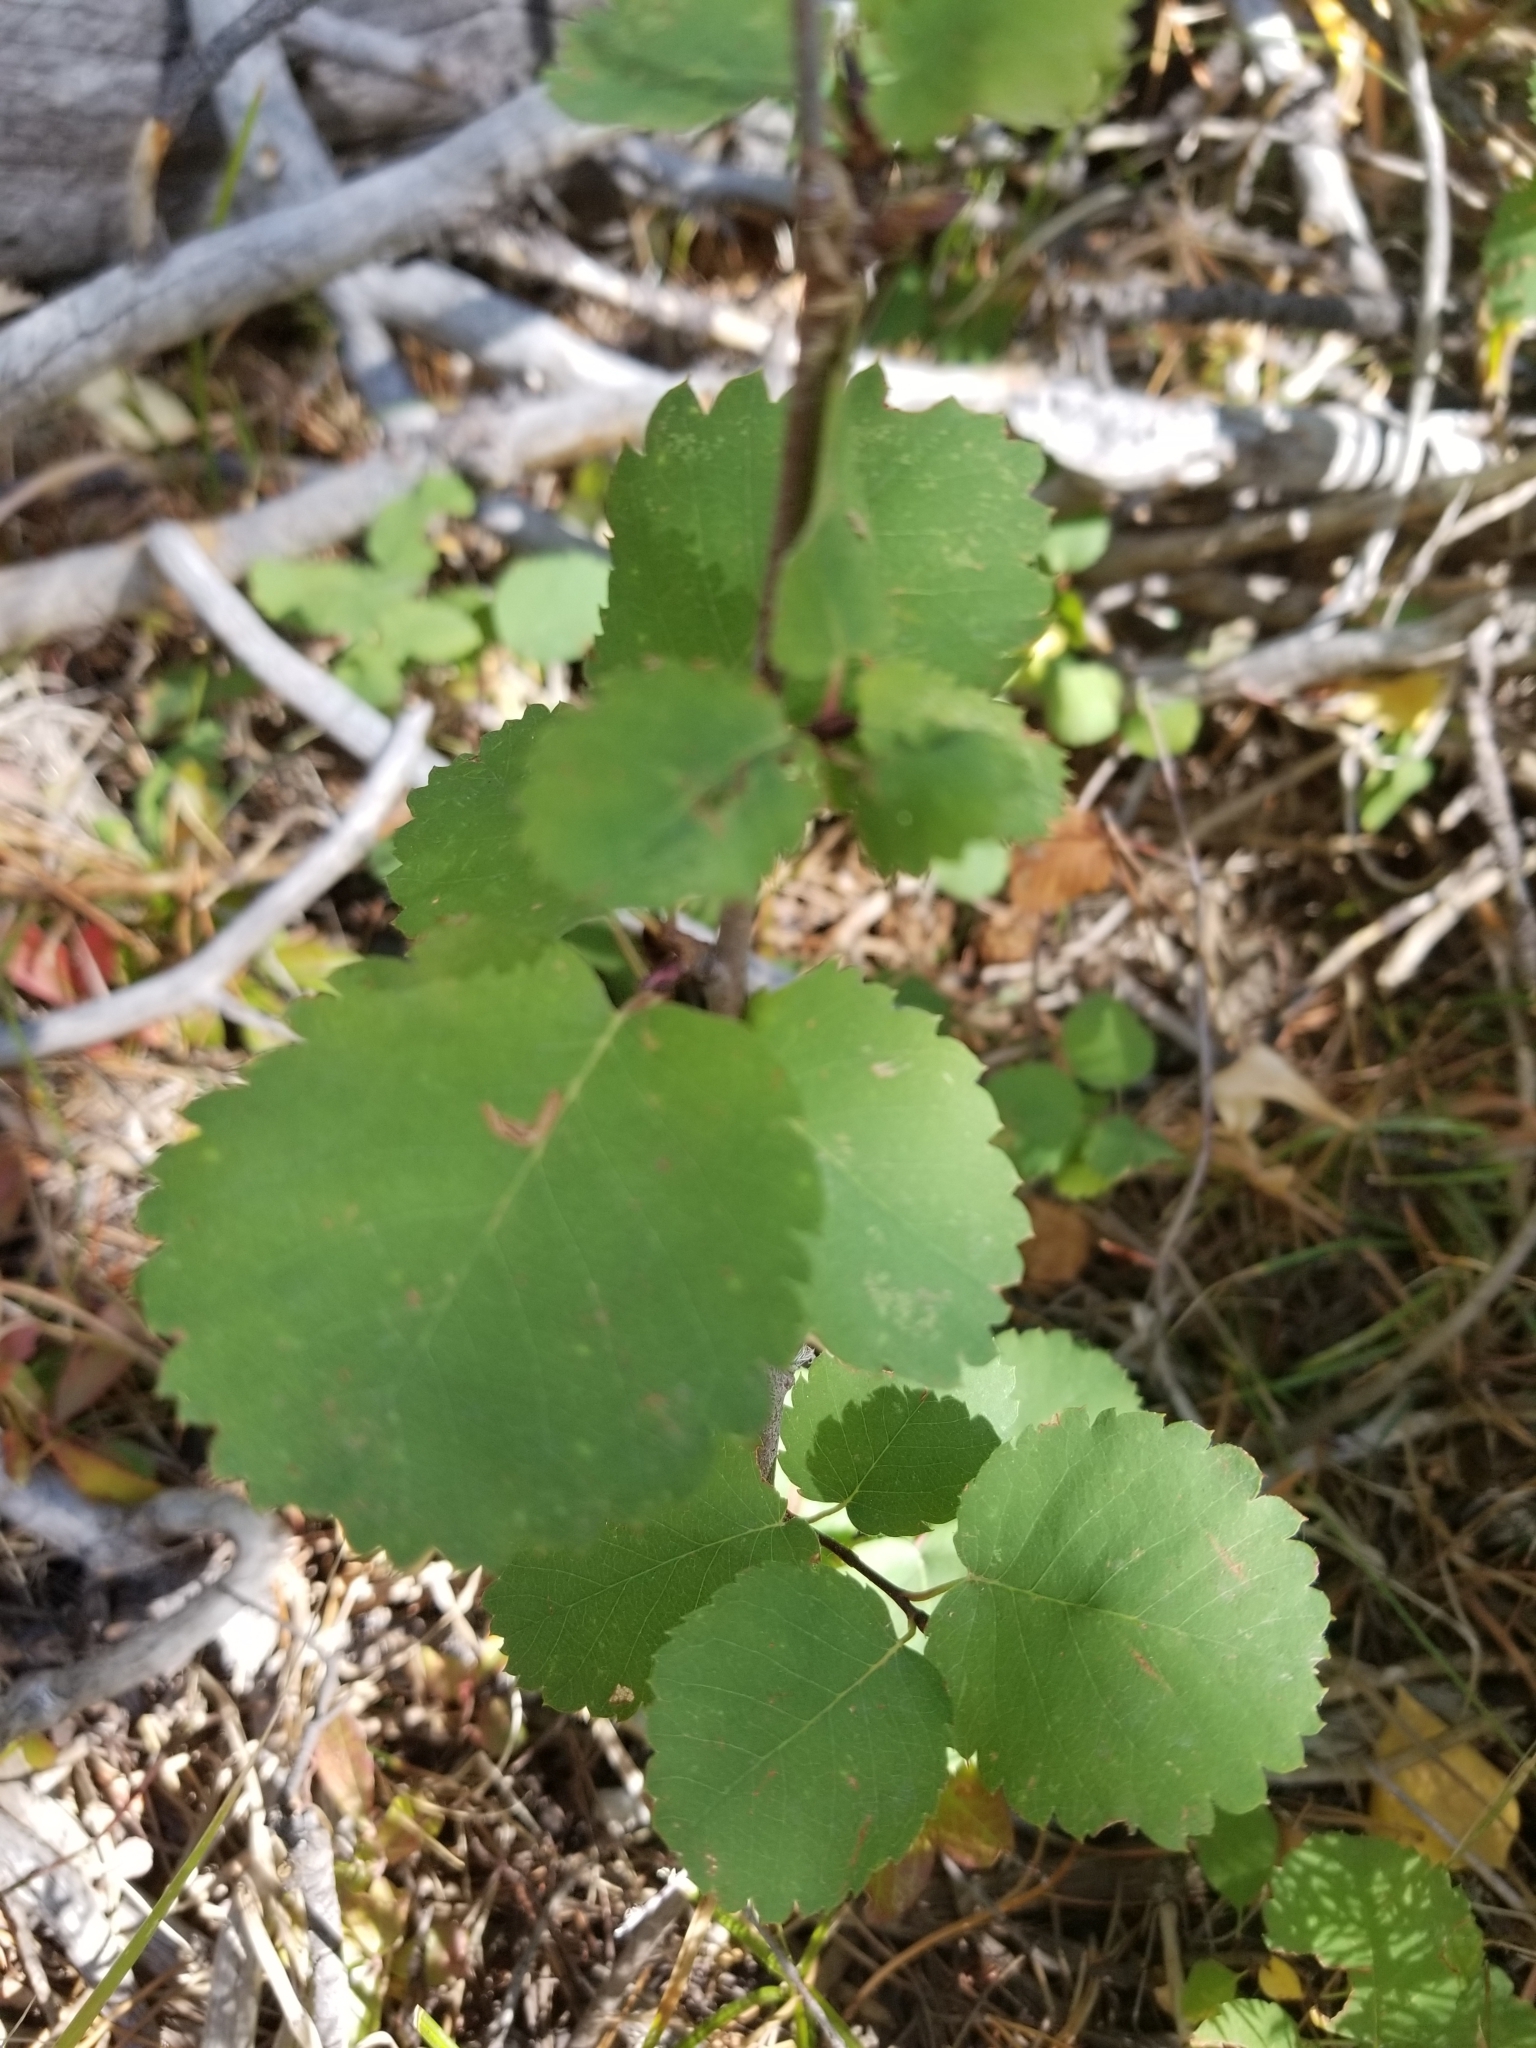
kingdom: Plantae
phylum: Tracheophyta
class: Magnoliopsida
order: Rosales
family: Rosaceae
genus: Amelanchier
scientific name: Amelanchier alnifolia
